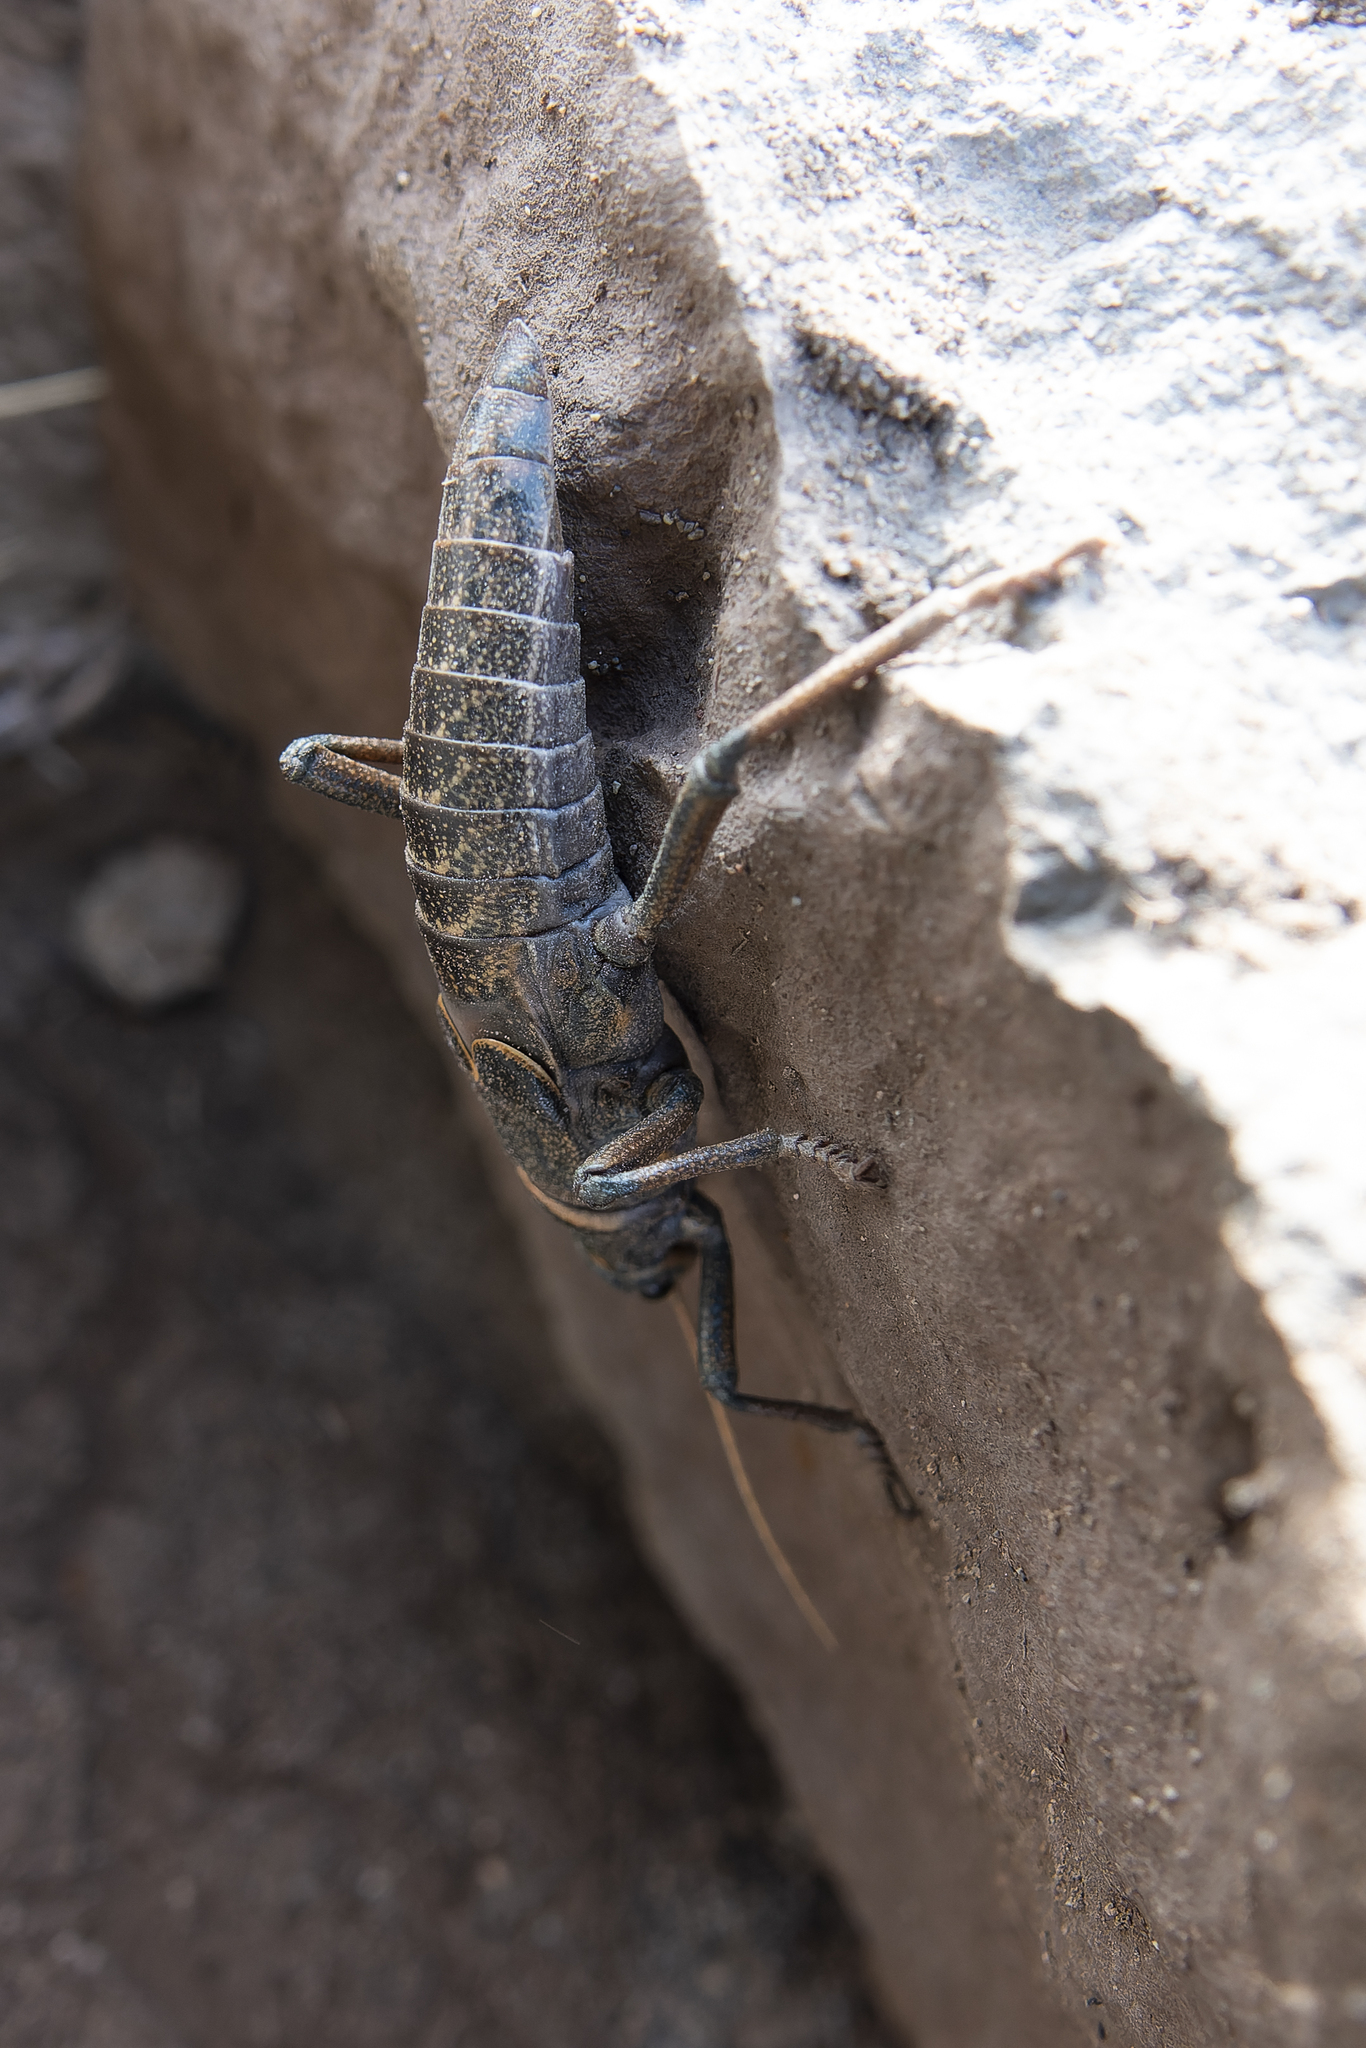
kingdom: Animalia
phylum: Arthropoda
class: Insecta
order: Phasmida
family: Agathemeridae
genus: Agathemera
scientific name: Agathemera millepunctata
